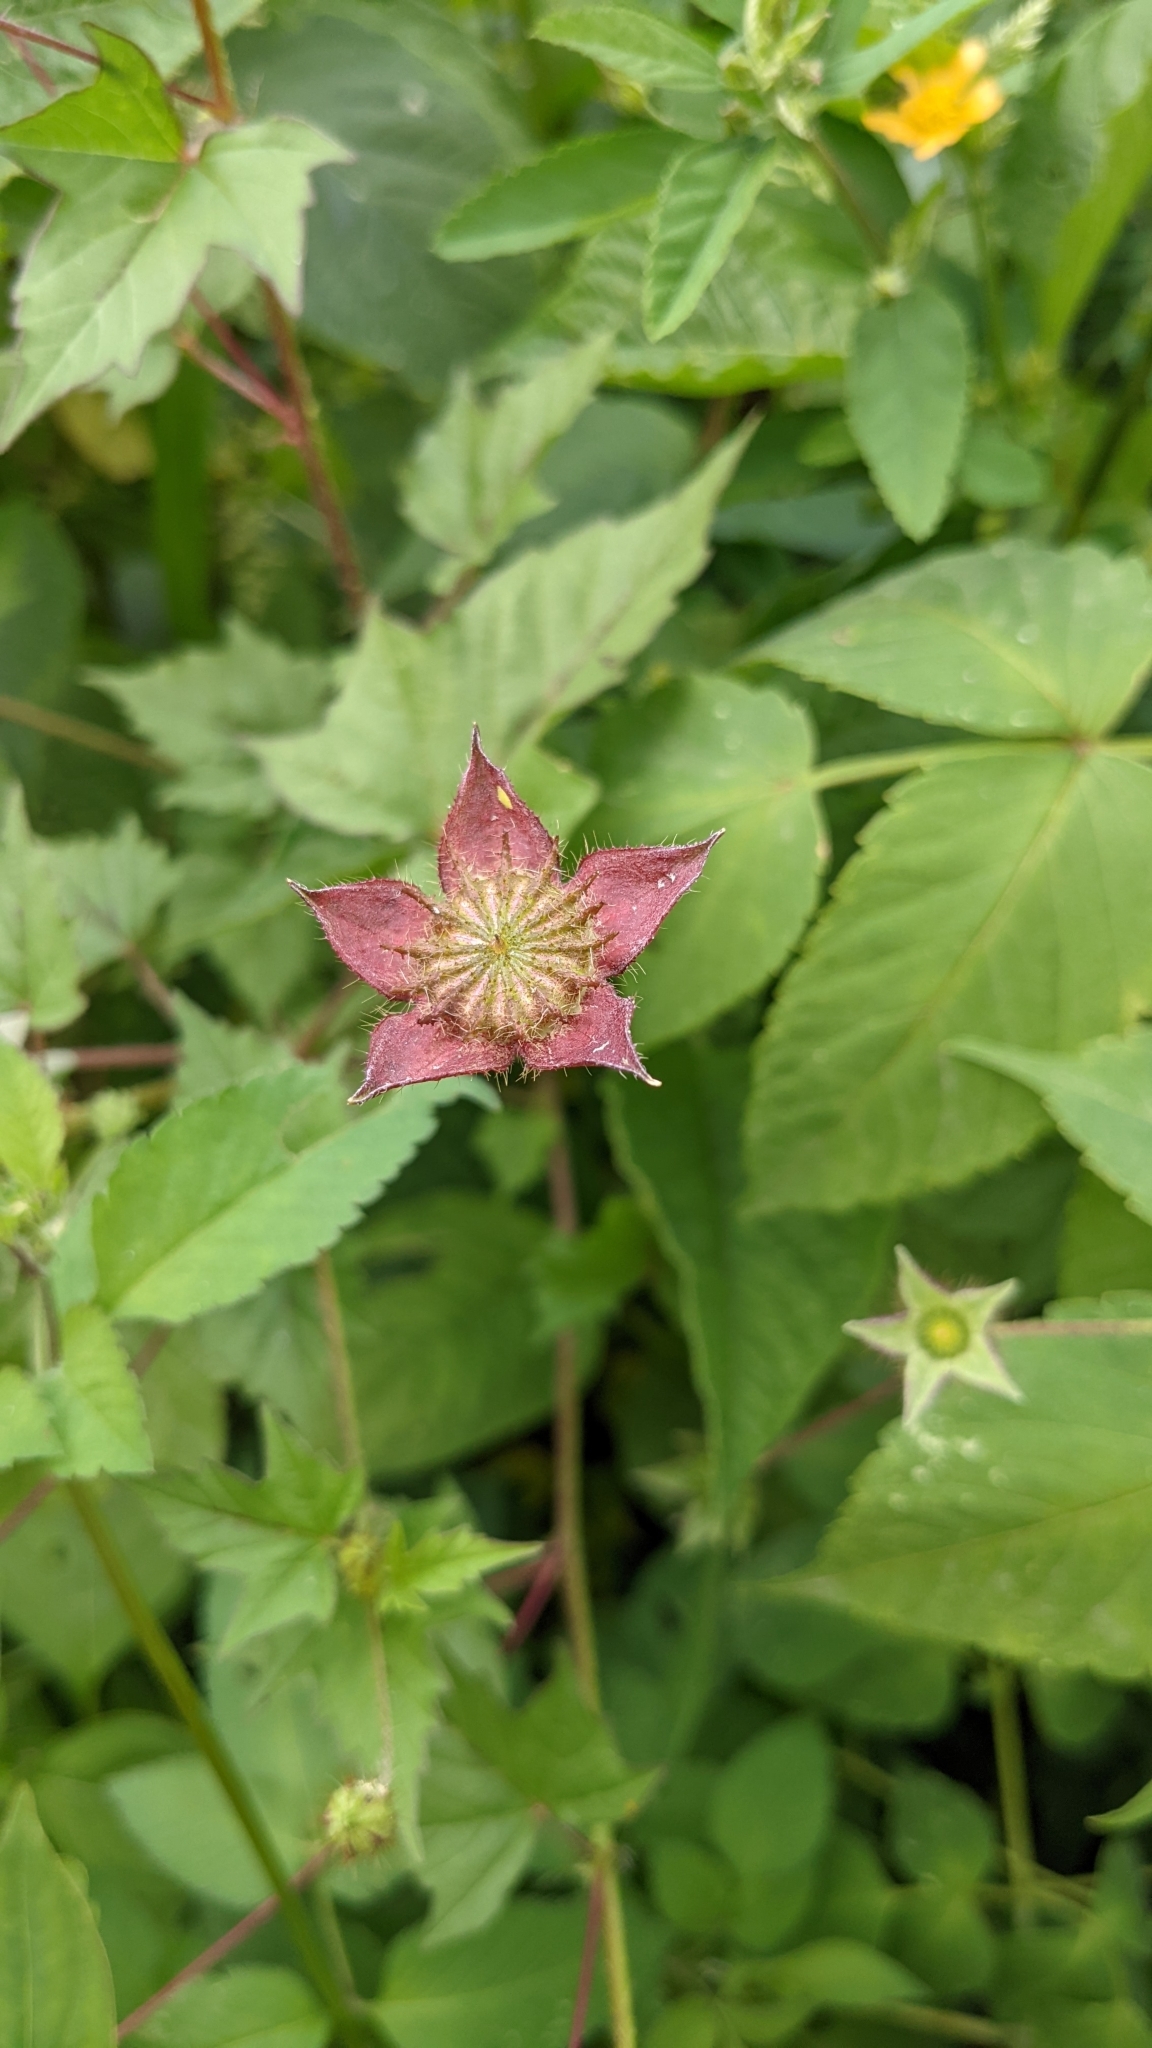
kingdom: Plantae
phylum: Tracheophyta
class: Magnoliopsida
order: Malvales
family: Malvaceae
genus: Anoda
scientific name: Anoda cristata
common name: Spurred anoda
